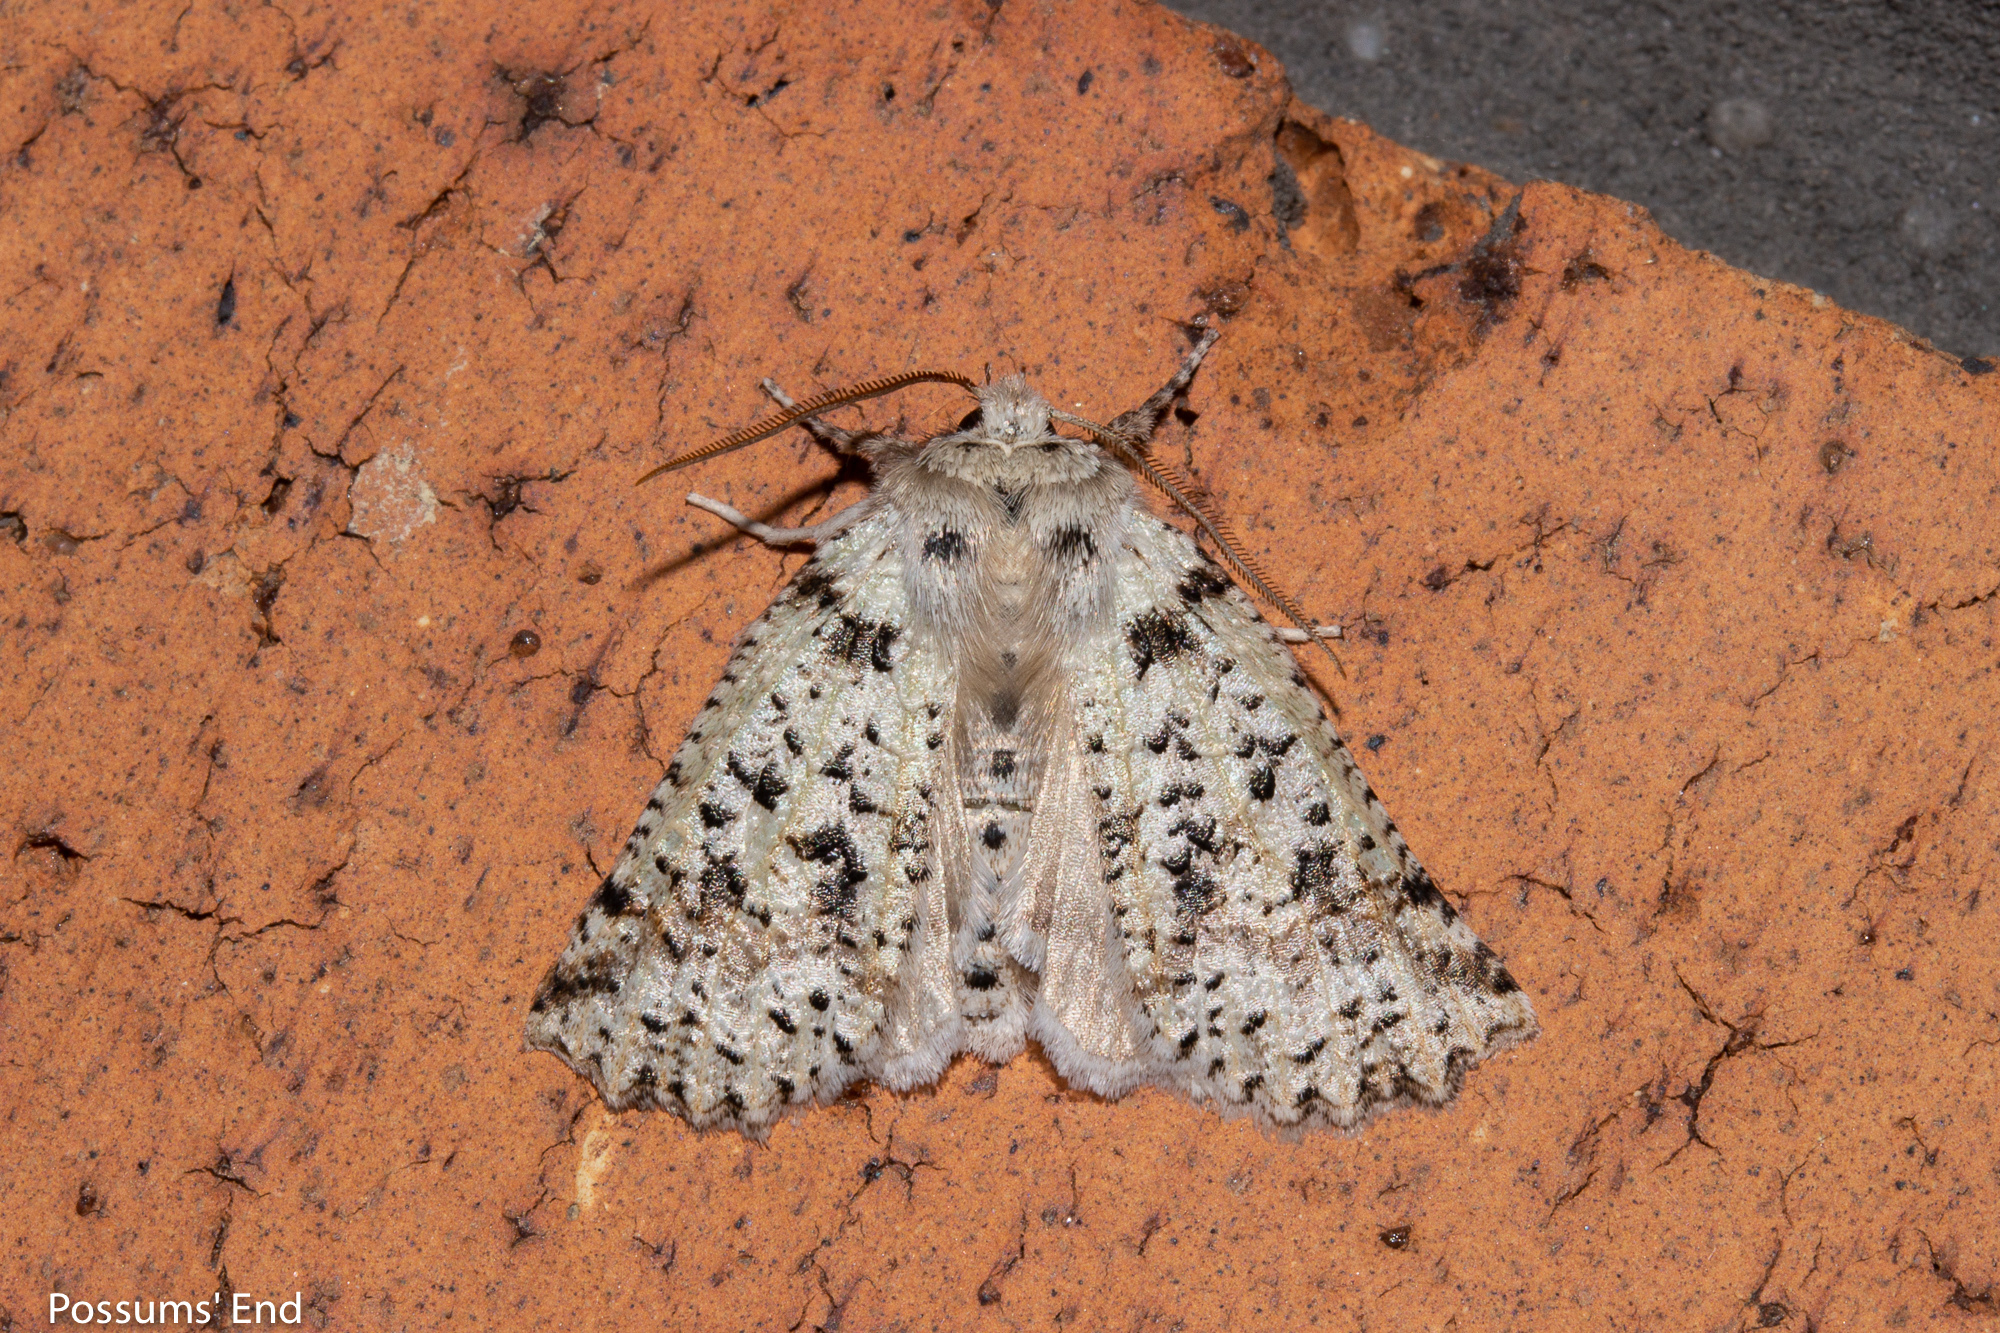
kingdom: Animalia
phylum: Arthropoda
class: Insecta
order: Lepidoptera
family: Geometridae
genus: Declana
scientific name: Declana floccosa
